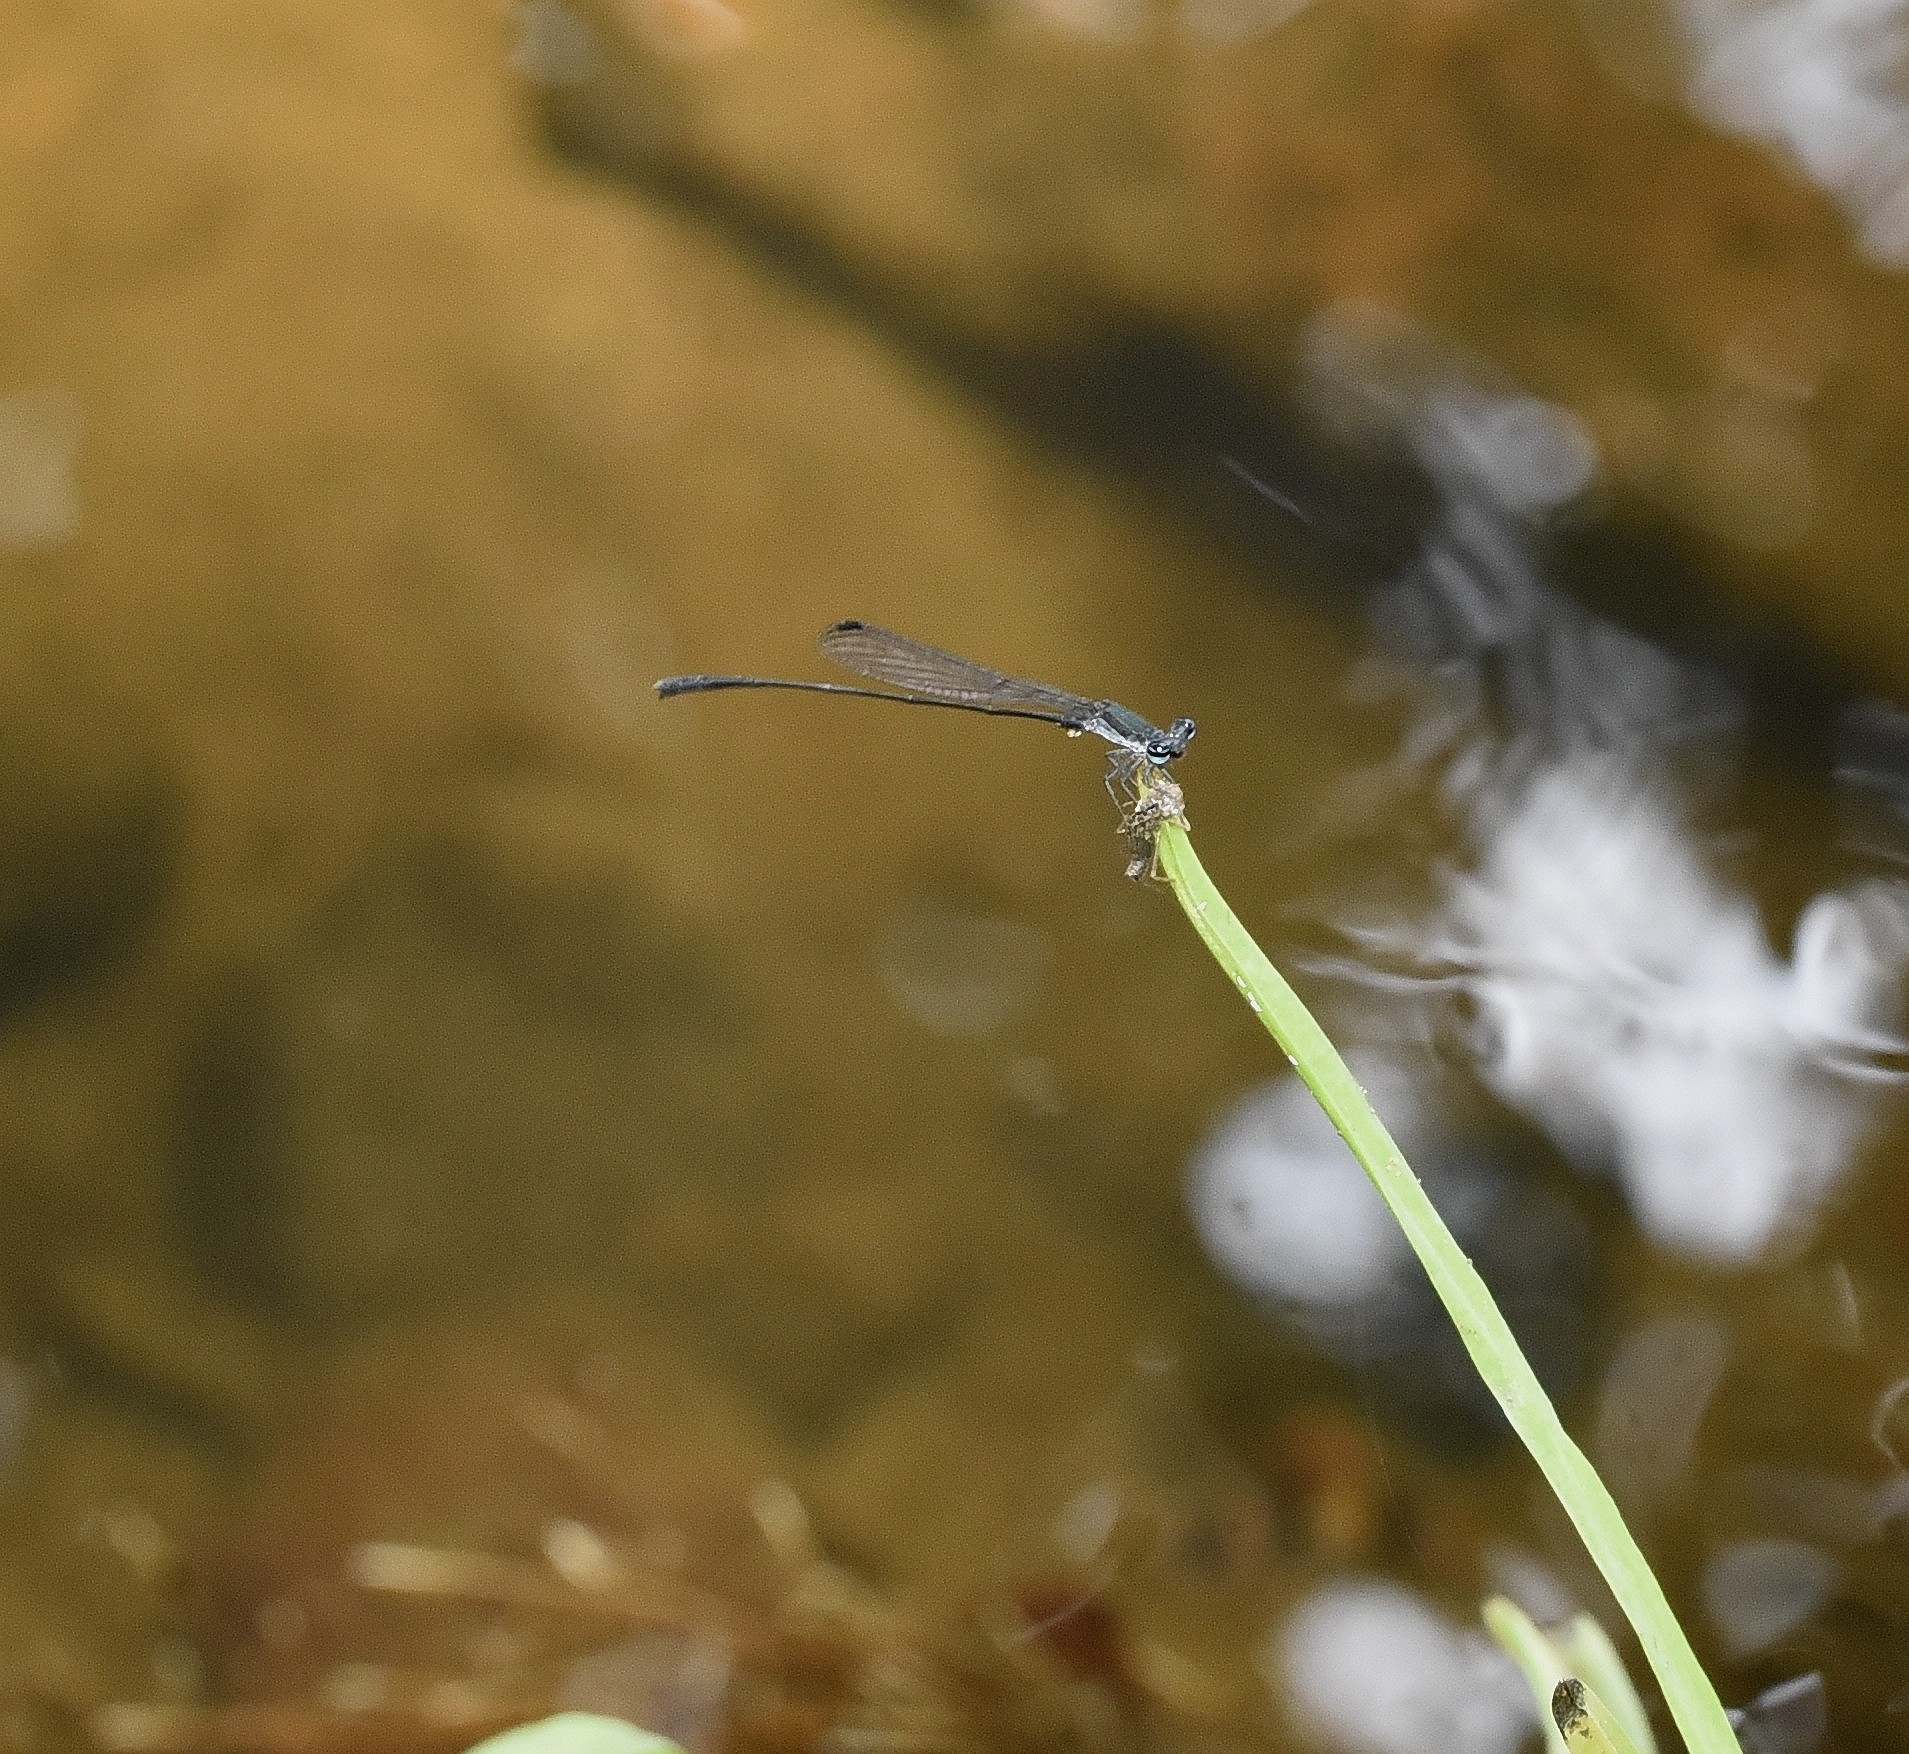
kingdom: Animalia
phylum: Arthropoda
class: Insecta
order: Odonata
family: Platycnemididae
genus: Elattoneura
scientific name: Elattoneura tetrica
